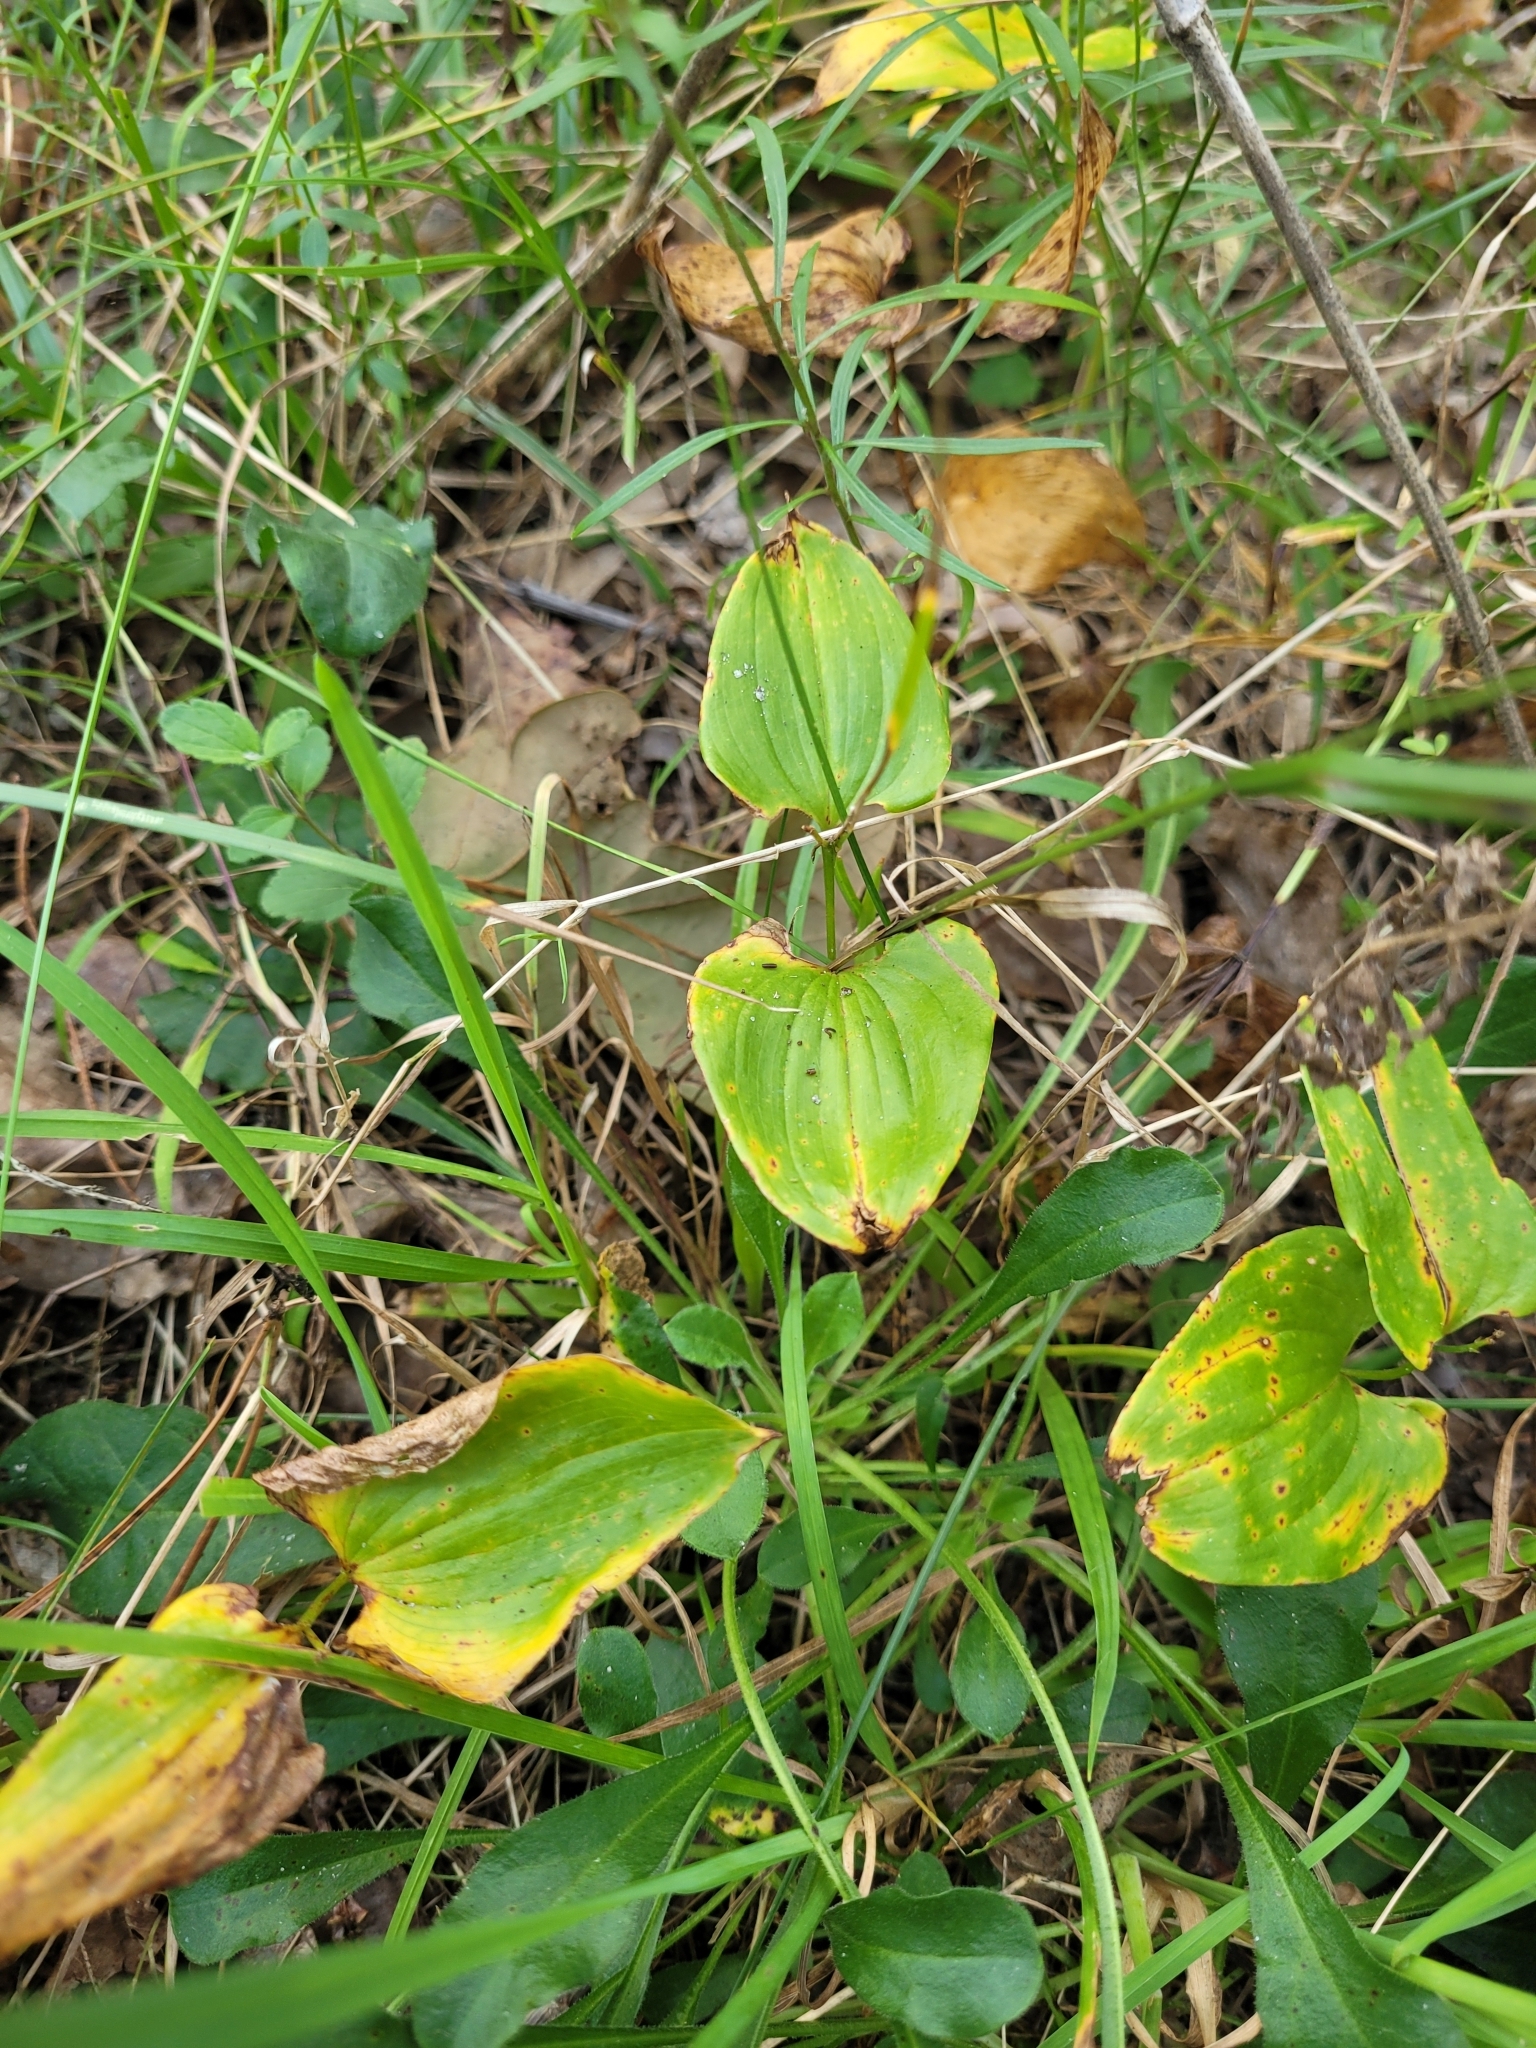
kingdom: Plantae
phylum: Tracheophyta
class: Liliopsida
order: Asparagales
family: Asparagaceae
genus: Maianthemum
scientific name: Maianthemum bifolium
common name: May lily
